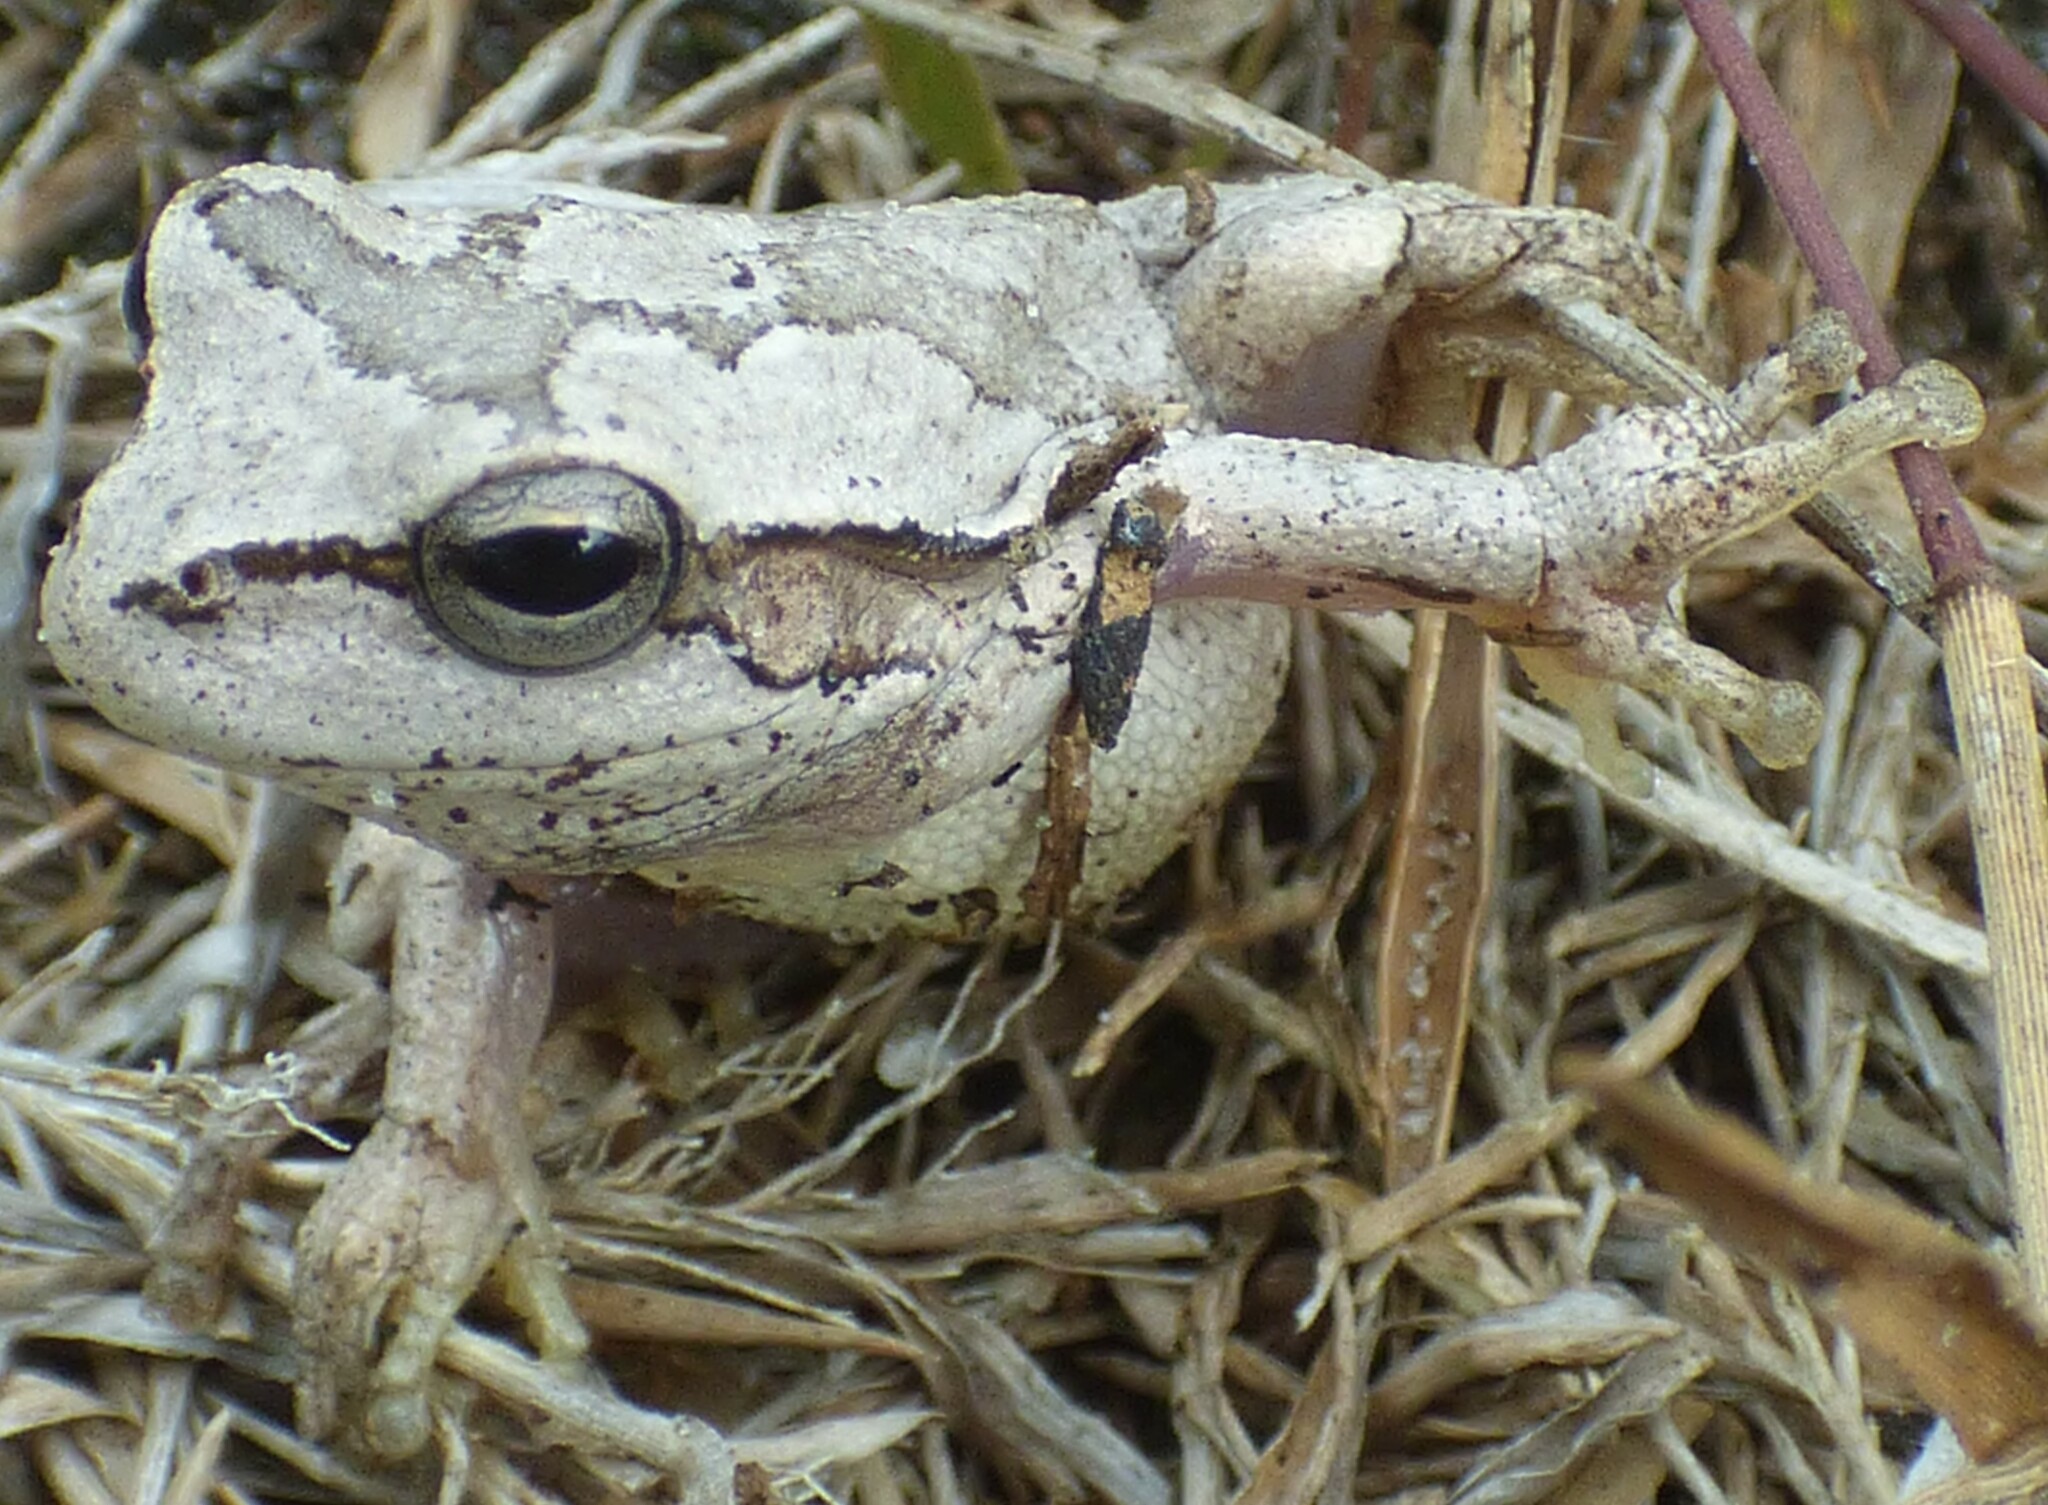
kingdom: Animalia
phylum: Chordata
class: Amphibia
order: Anura
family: Hylidae
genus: Hyla
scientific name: Hyla femoralis
